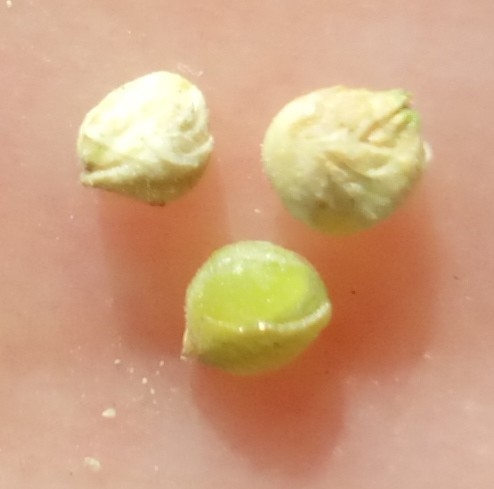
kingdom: Plantae
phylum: Tracheophyta
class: Magnoliopsida
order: Dipsacales
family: Caprifoliaceae
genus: Valerianella
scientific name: Valerianella locusta
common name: Common cornsalad
